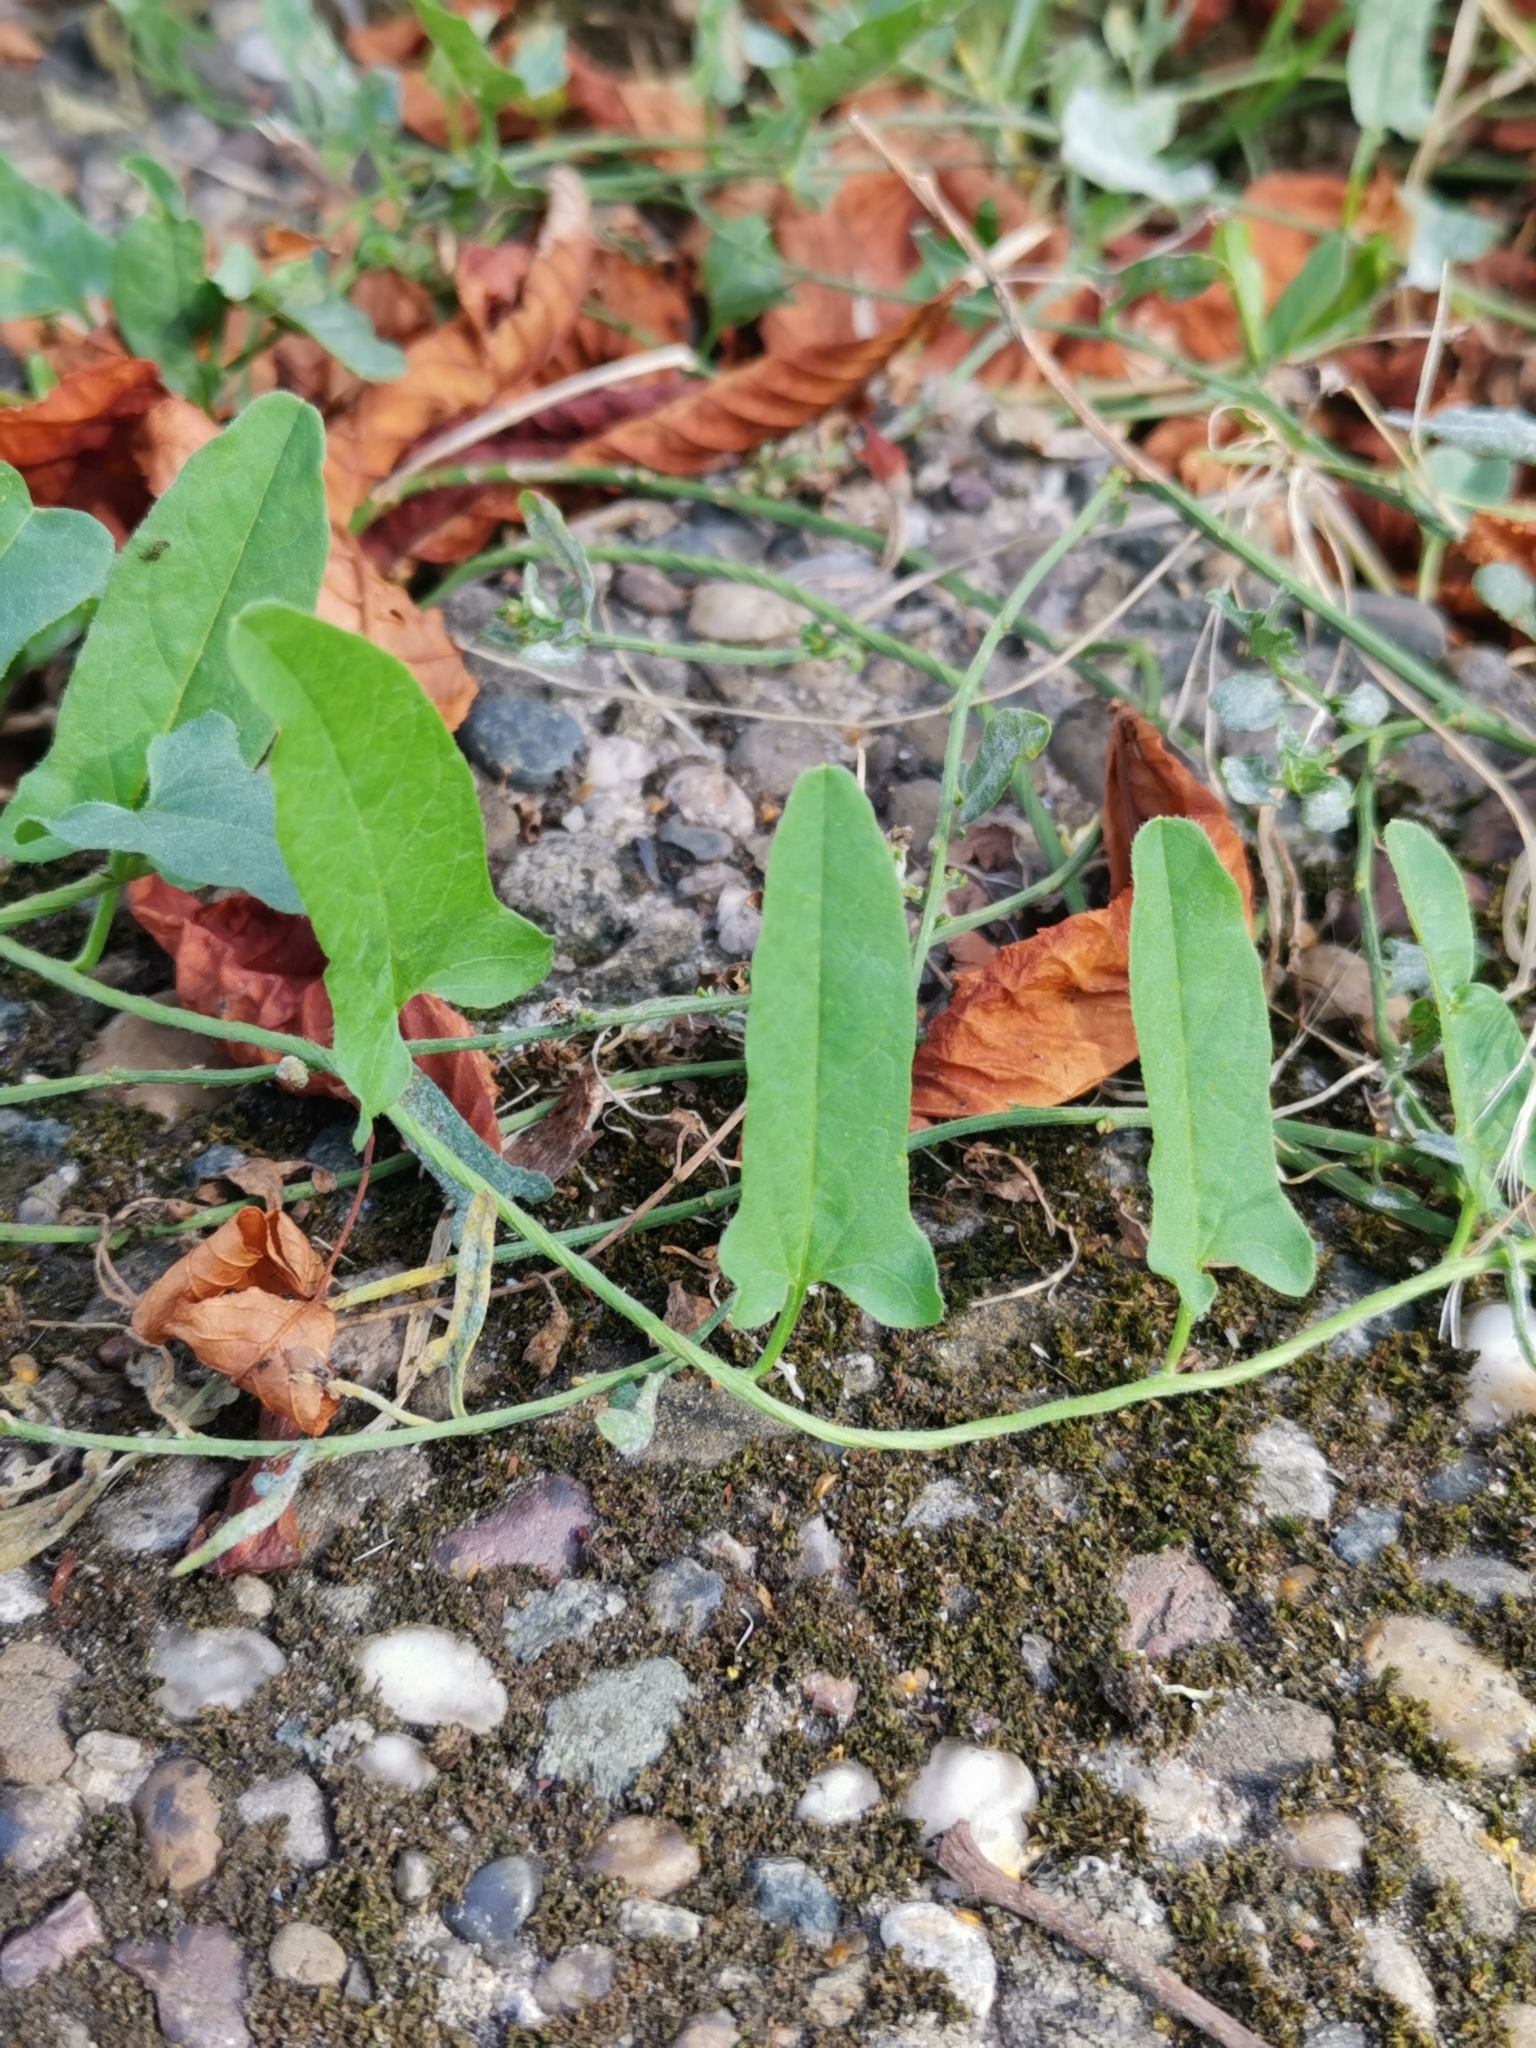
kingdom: Plantae
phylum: Tracheophyta
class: Magnoliopsida
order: Solanales
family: Convolvulaceae
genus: Convolvulus
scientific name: Convolvulus arvensis
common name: Field bindweed
